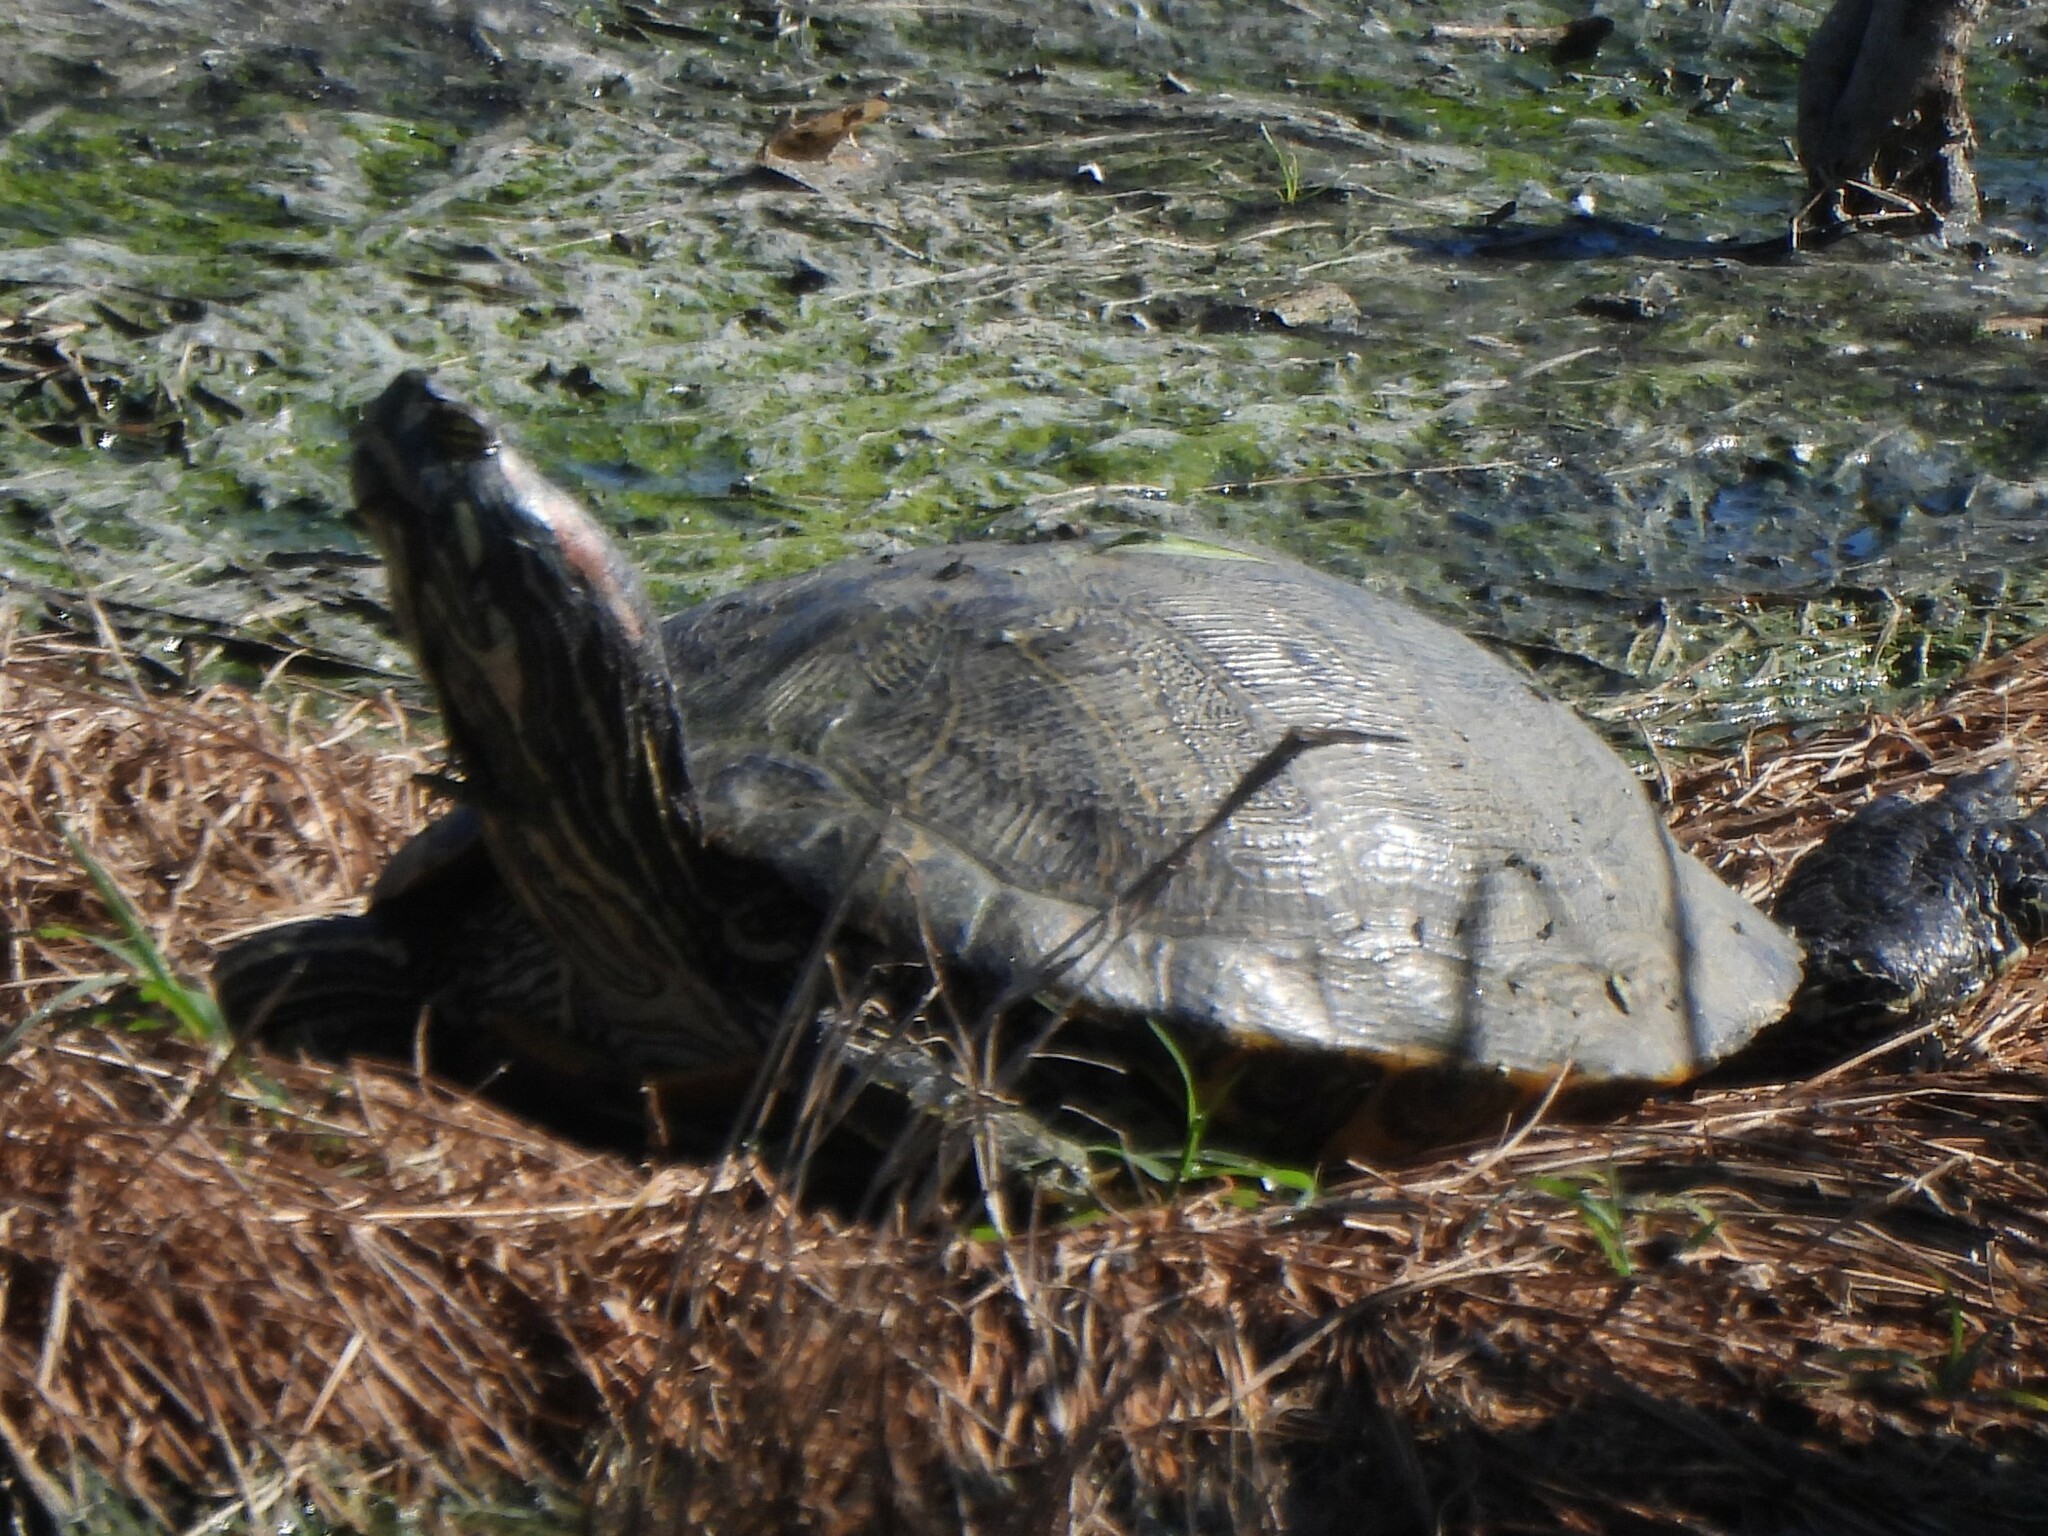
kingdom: Animalia
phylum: Chordata
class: Testudines
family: Emydidae
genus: Trachemys
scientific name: Trachemys scripta
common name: Slider
